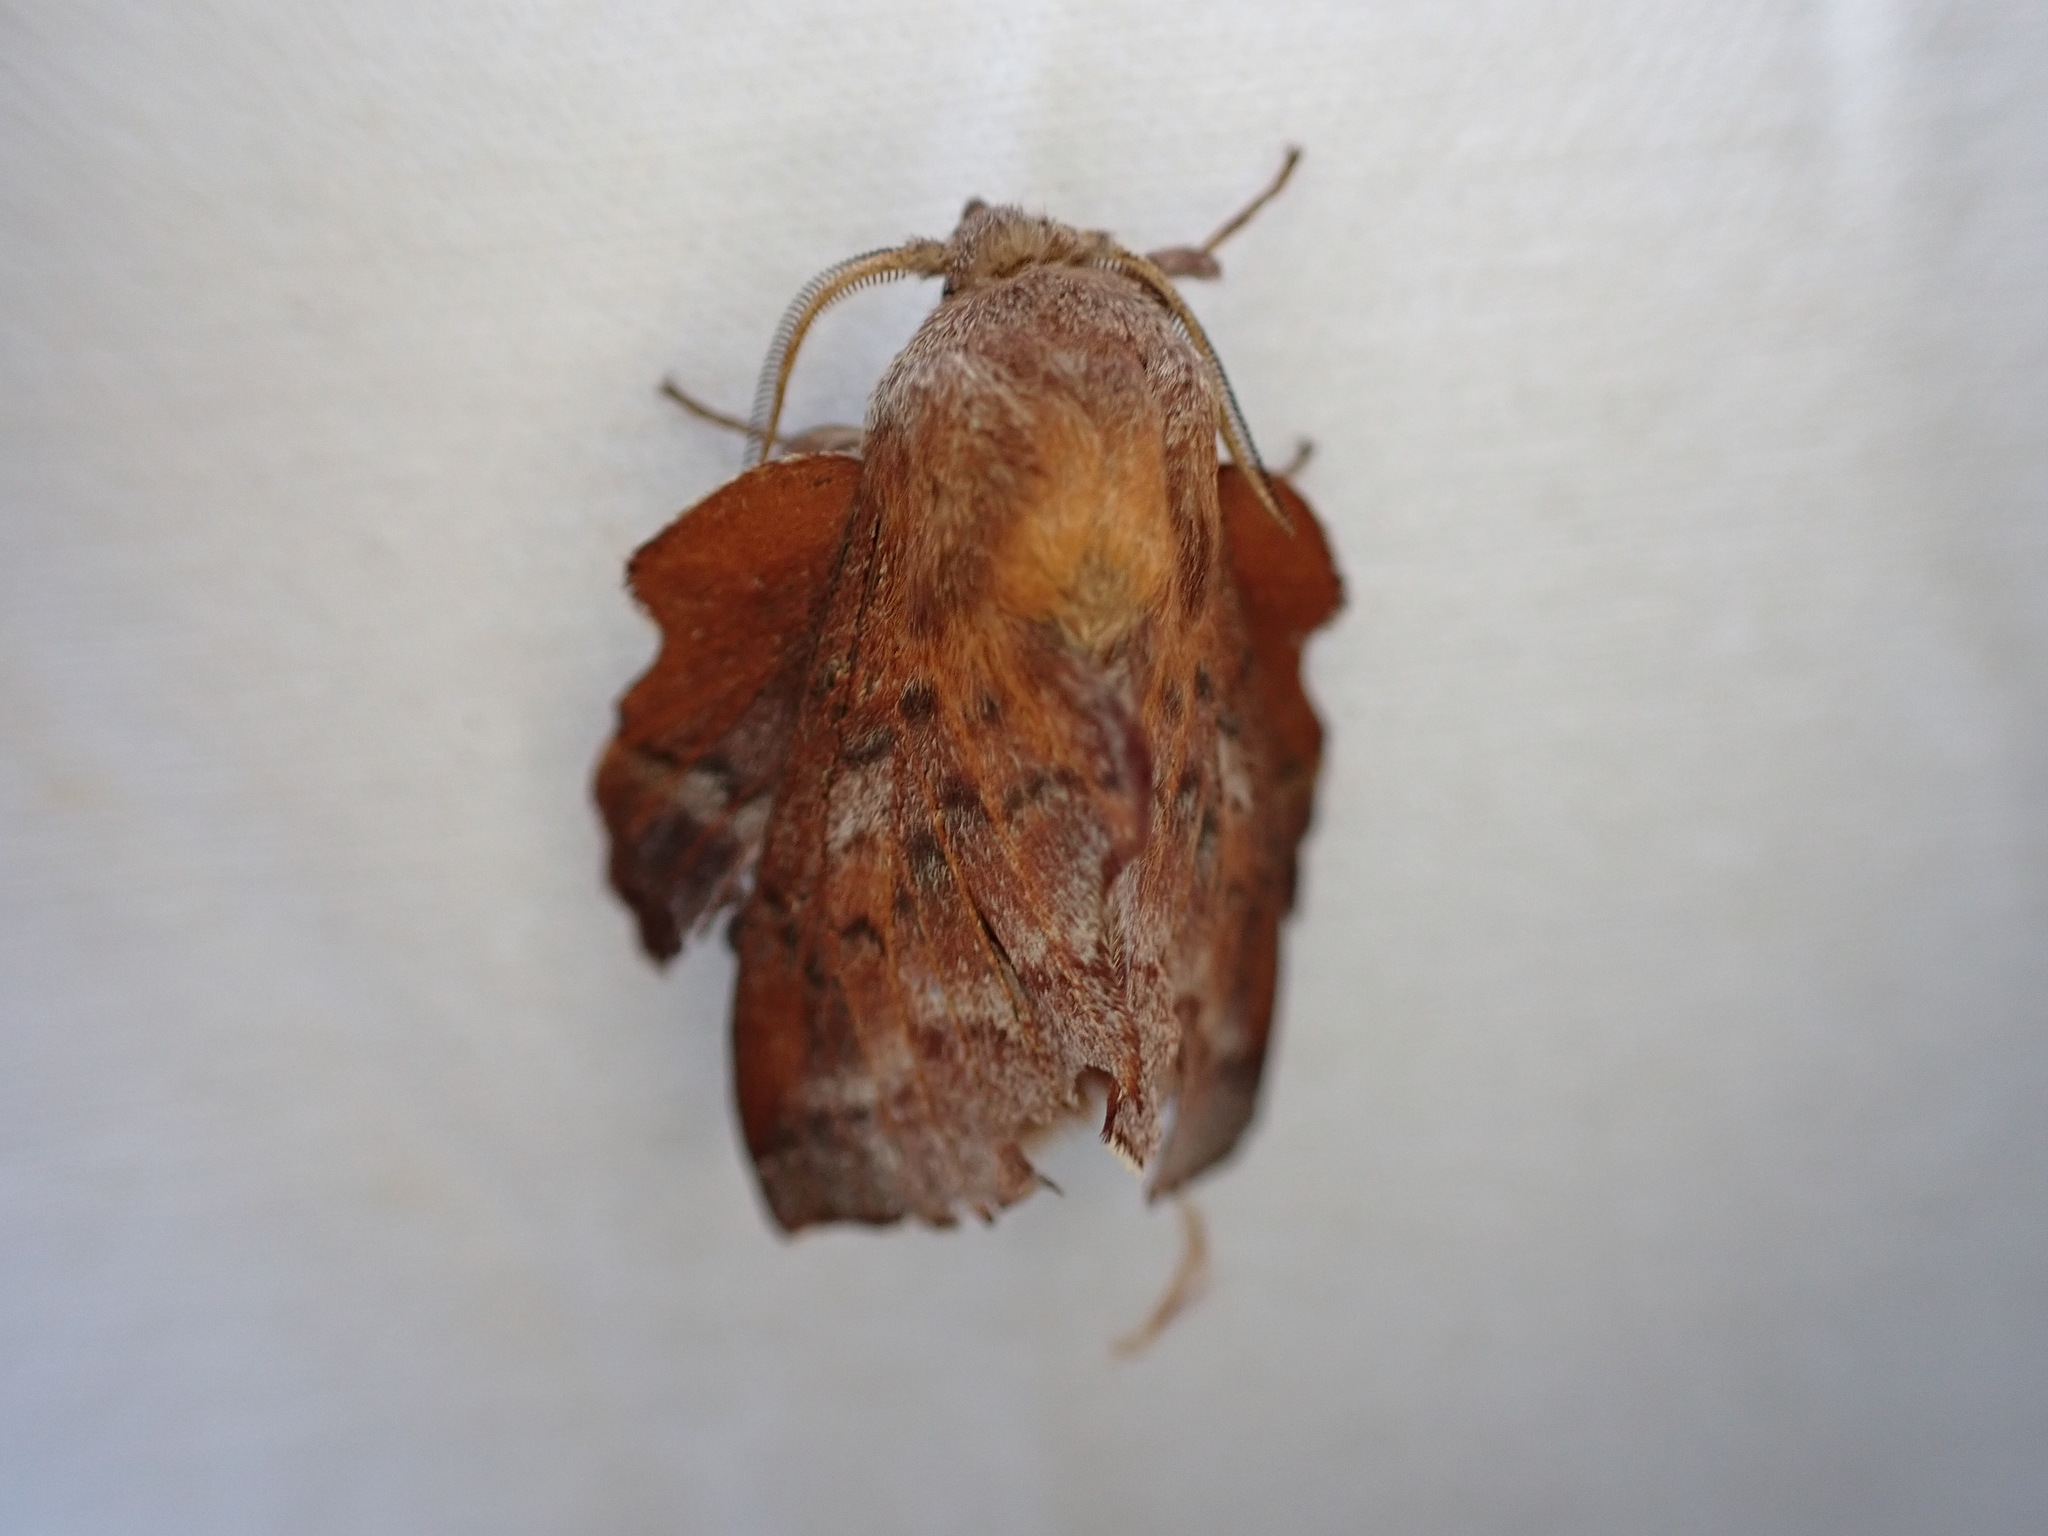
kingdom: Animalia
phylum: Arthropoda
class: Insecta
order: Lepidoptera
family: Lasiocampidae
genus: Phyllodesma
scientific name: Phyllodesma americana
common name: American lappet moth
